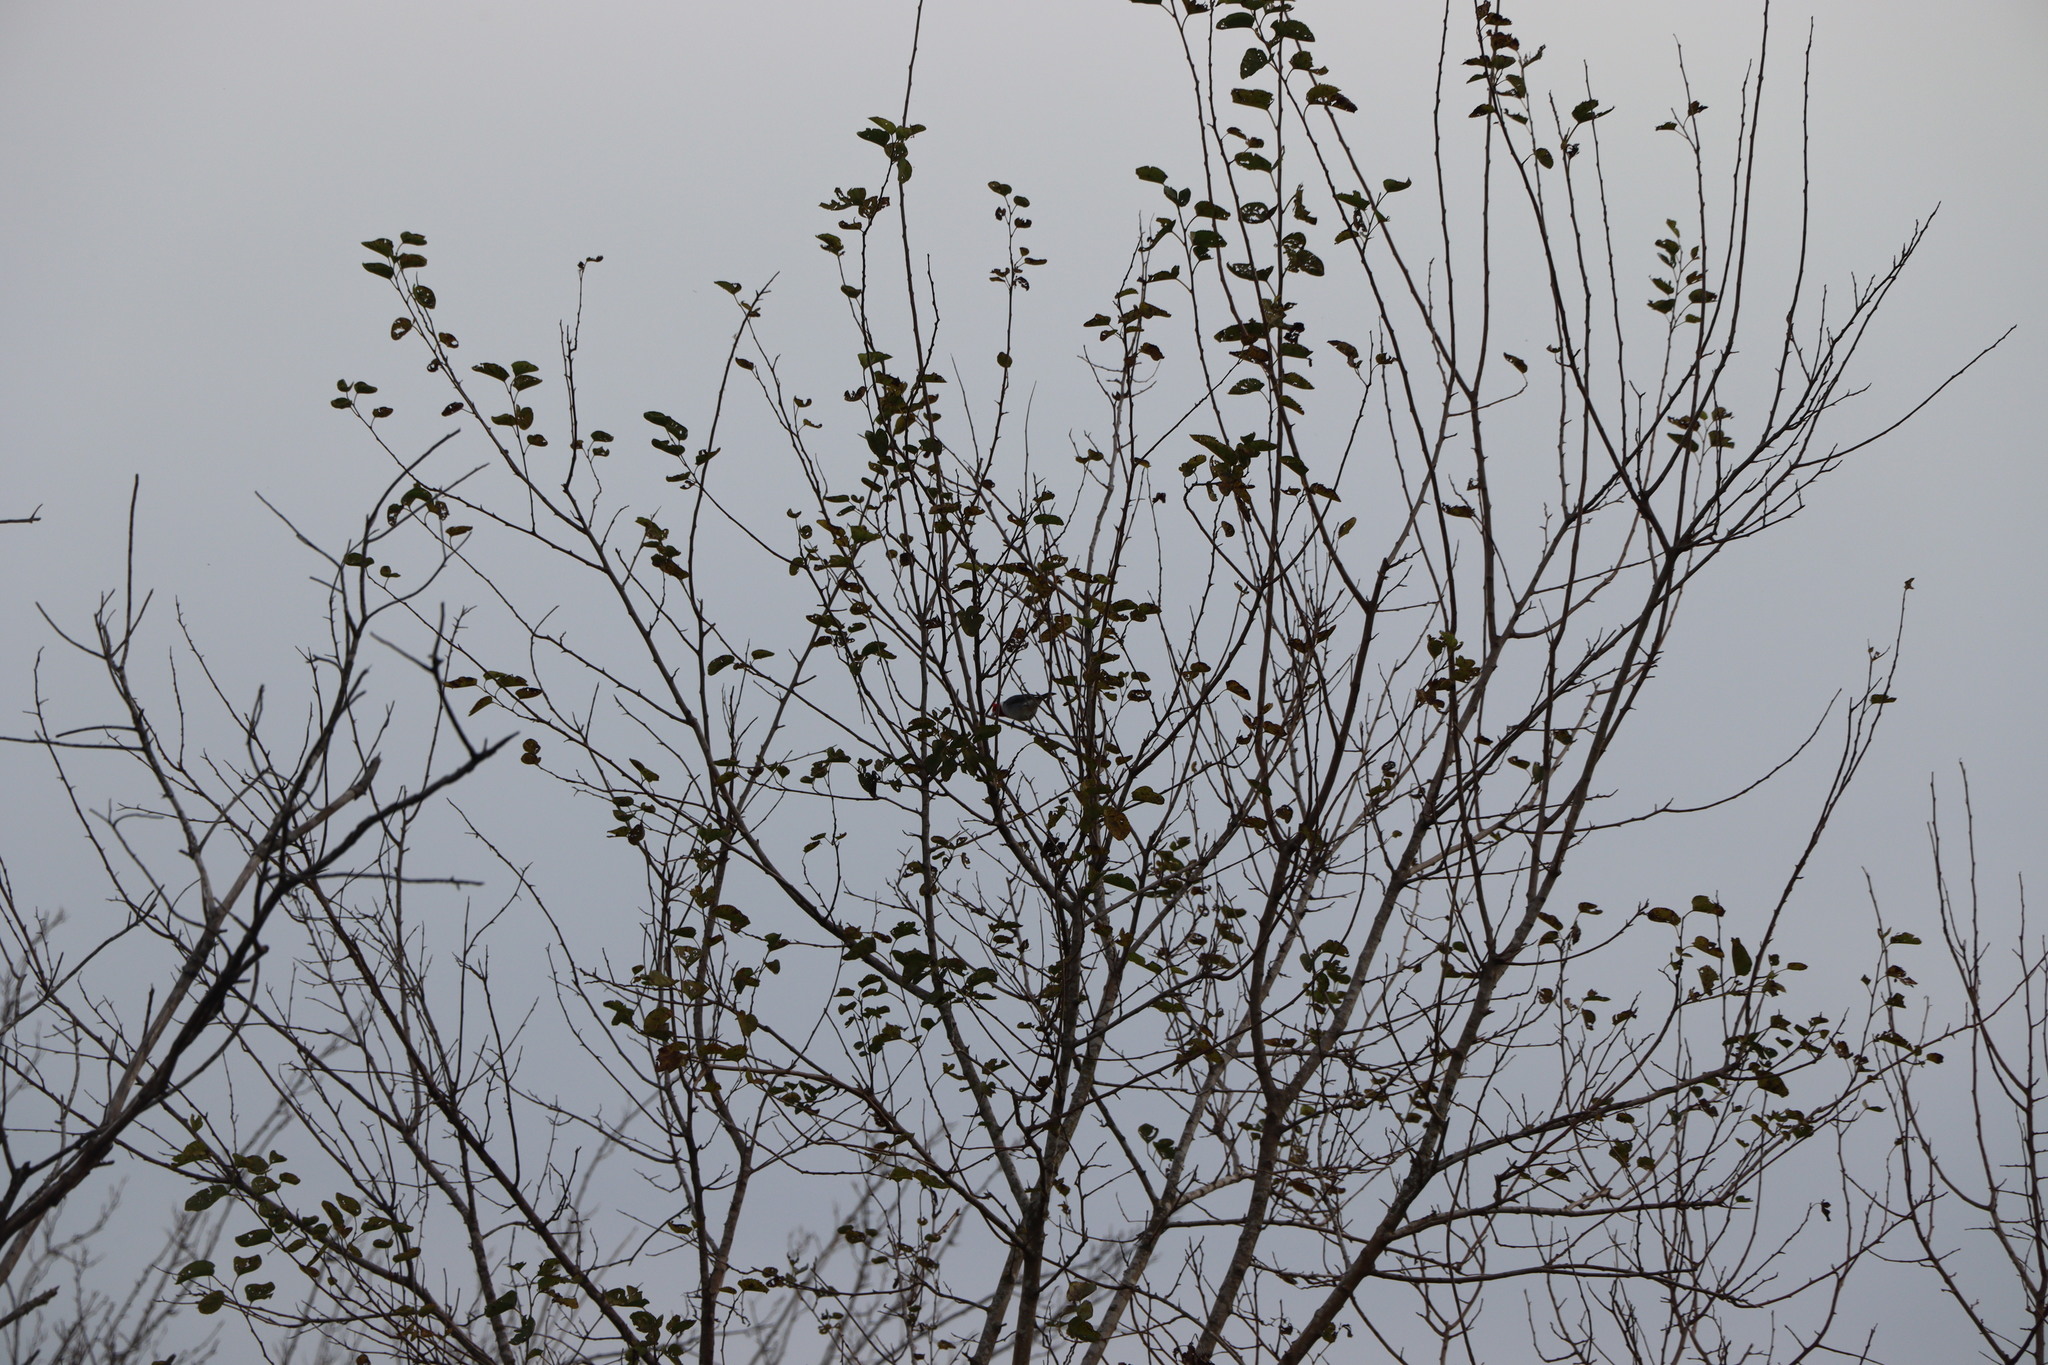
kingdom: Animalia
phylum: Chordata
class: Aves
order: Passeriformes
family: Thraupidae
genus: Paroaria
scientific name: Paroaria coronata
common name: Red-crested cardinal
